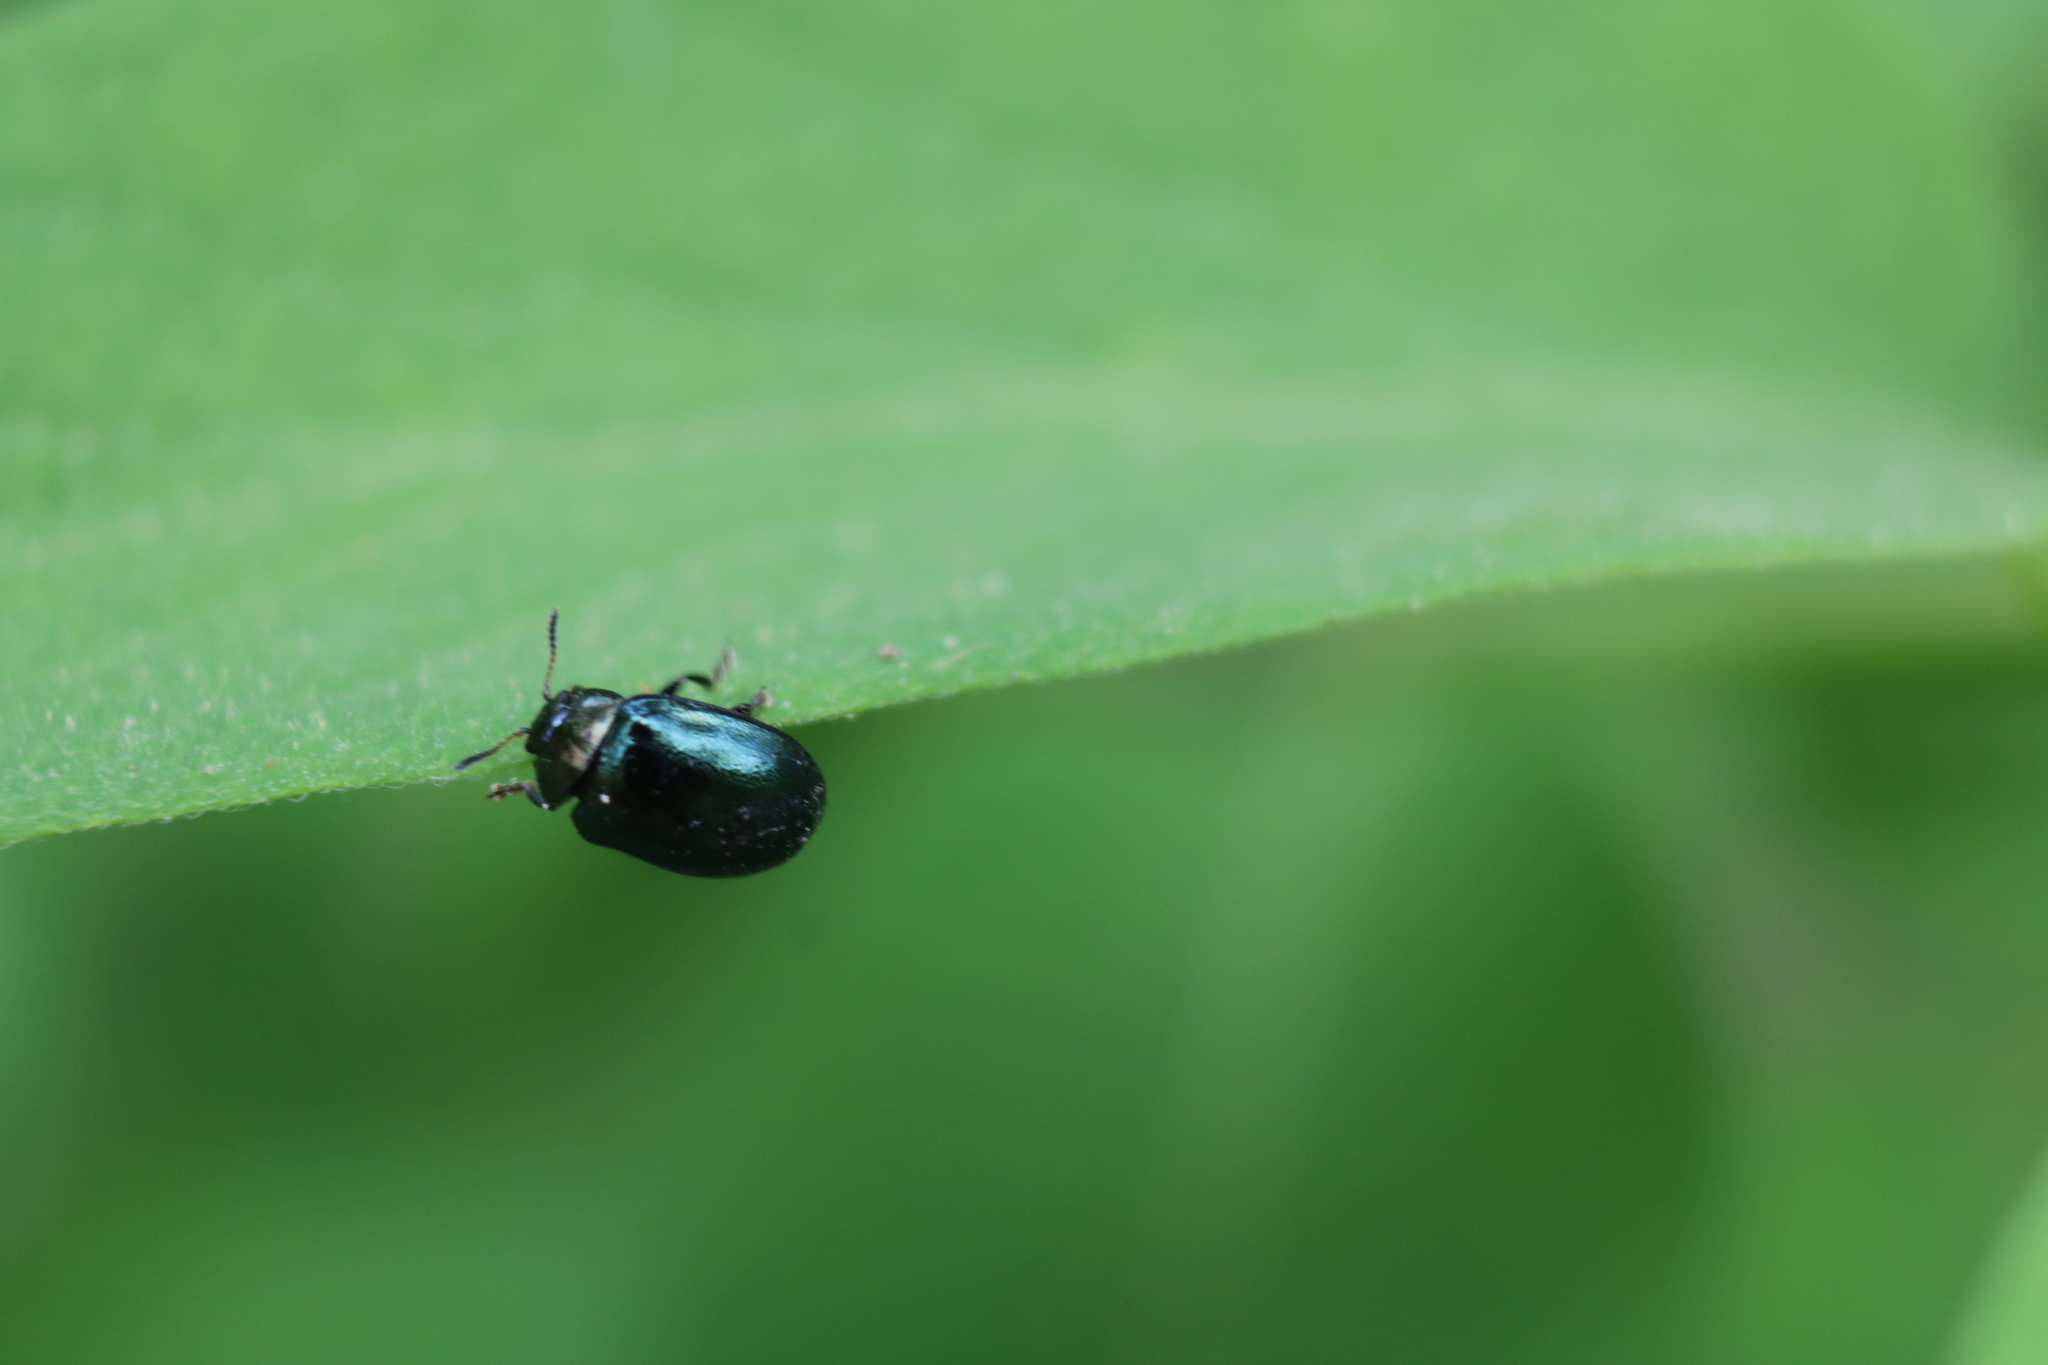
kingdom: Animalia
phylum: Arthropoda
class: Insecta
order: Coleoptera
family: Chrysomelidae
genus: Plagiodera
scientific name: Plagiodera versicolora
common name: Imported willow leaf beetle
